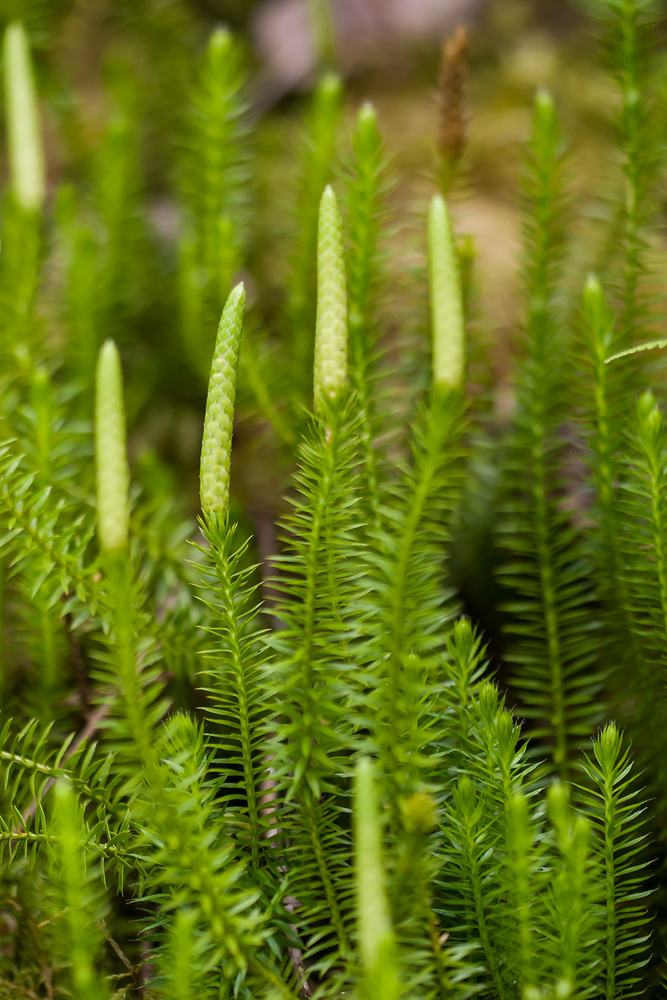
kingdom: Plantae
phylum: Tracheophyta
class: Lycopodiopsida
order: Lycopodiales
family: Lycopodiaceae
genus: Spinulum
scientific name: Spinulum annotinum
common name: Interrupted club-moss
